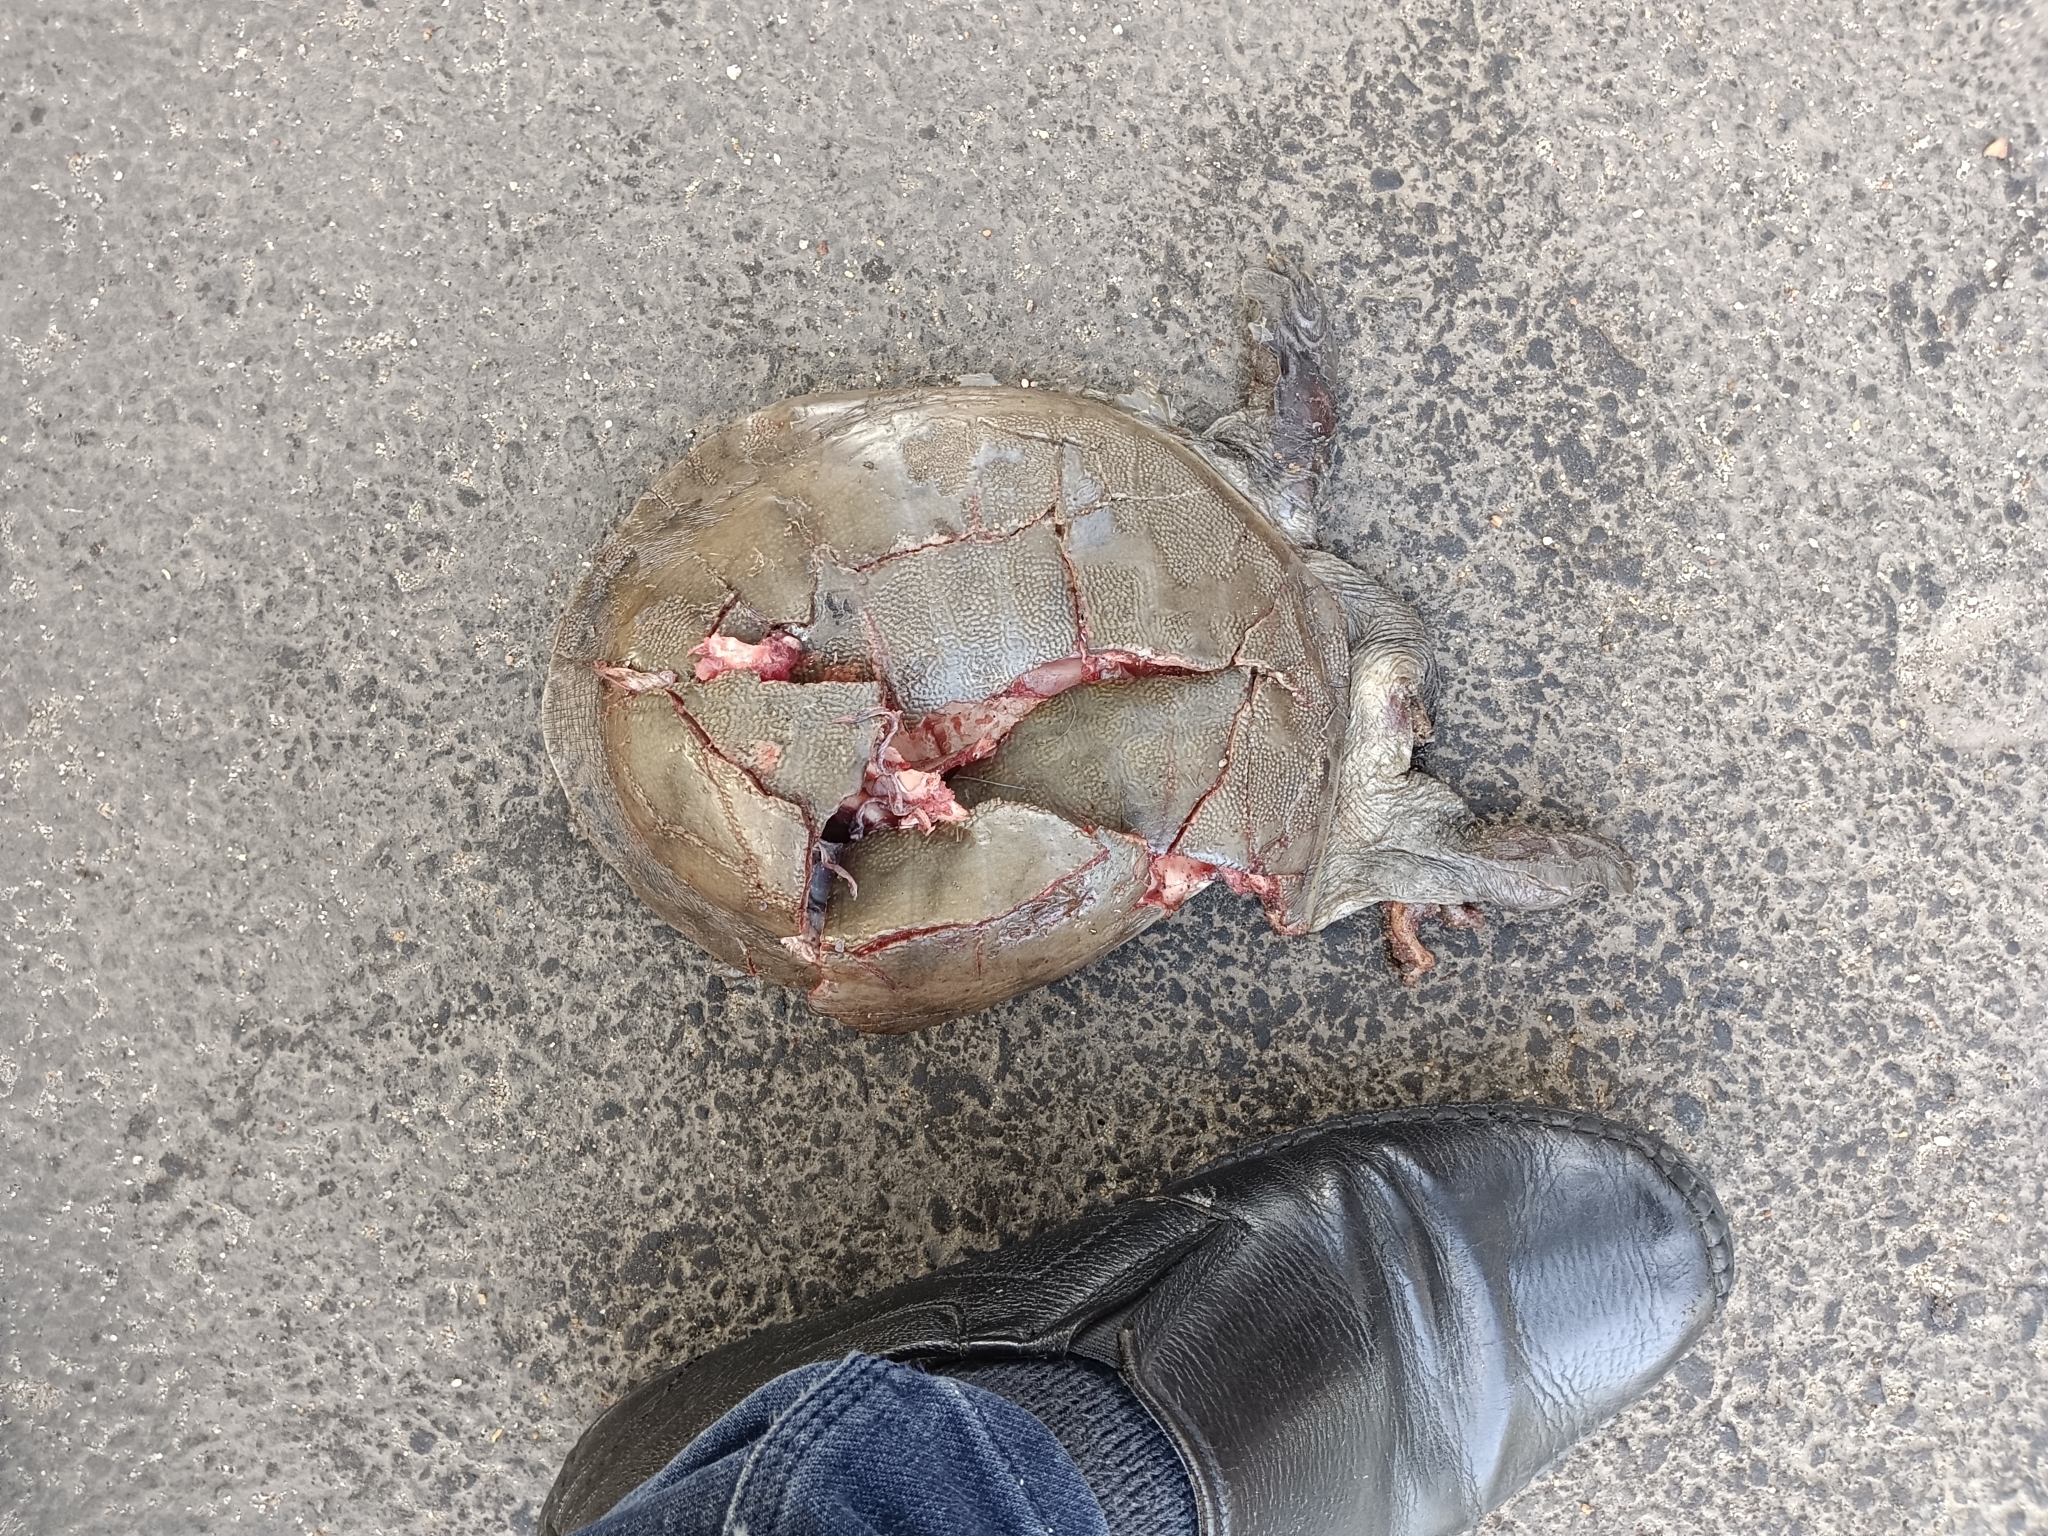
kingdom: Animalia
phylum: Chordata
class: Testudines
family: Trionychidae
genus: Lissemys
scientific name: Lissemys punctata
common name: Indian flap-shelled turtle
